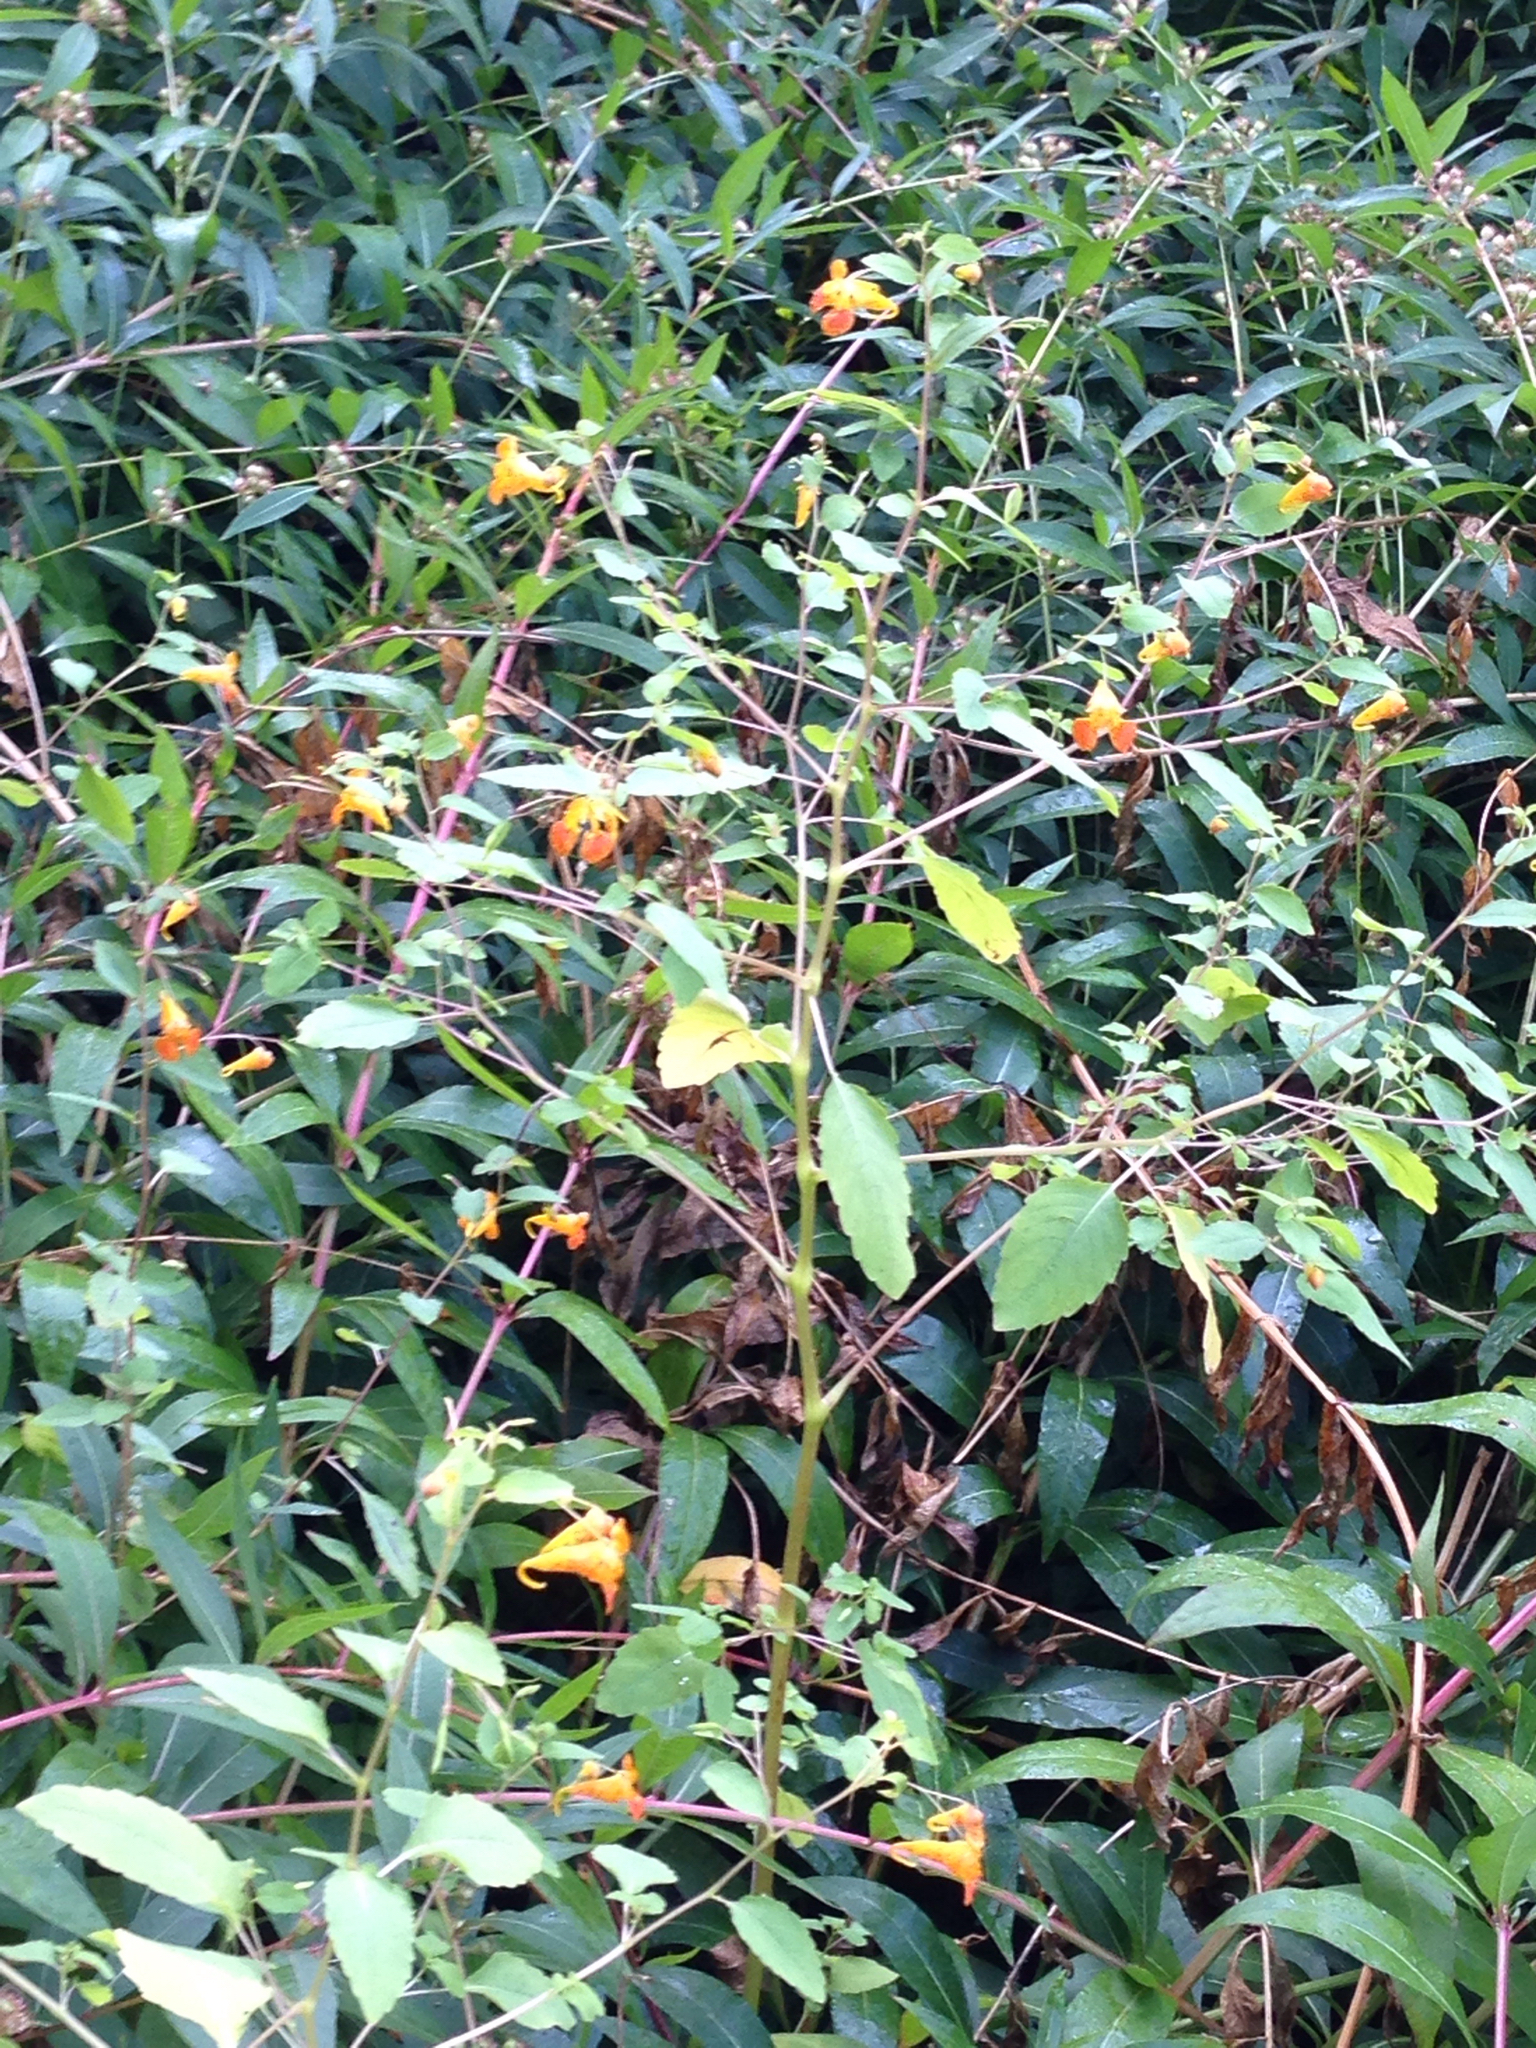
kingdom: Plantae
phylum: Tracheophyta
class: Magnoliopsida
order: Ericales
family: Balsaminaceae
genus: Impatiens
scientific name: Impatiens capensis
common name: Orange balsam
